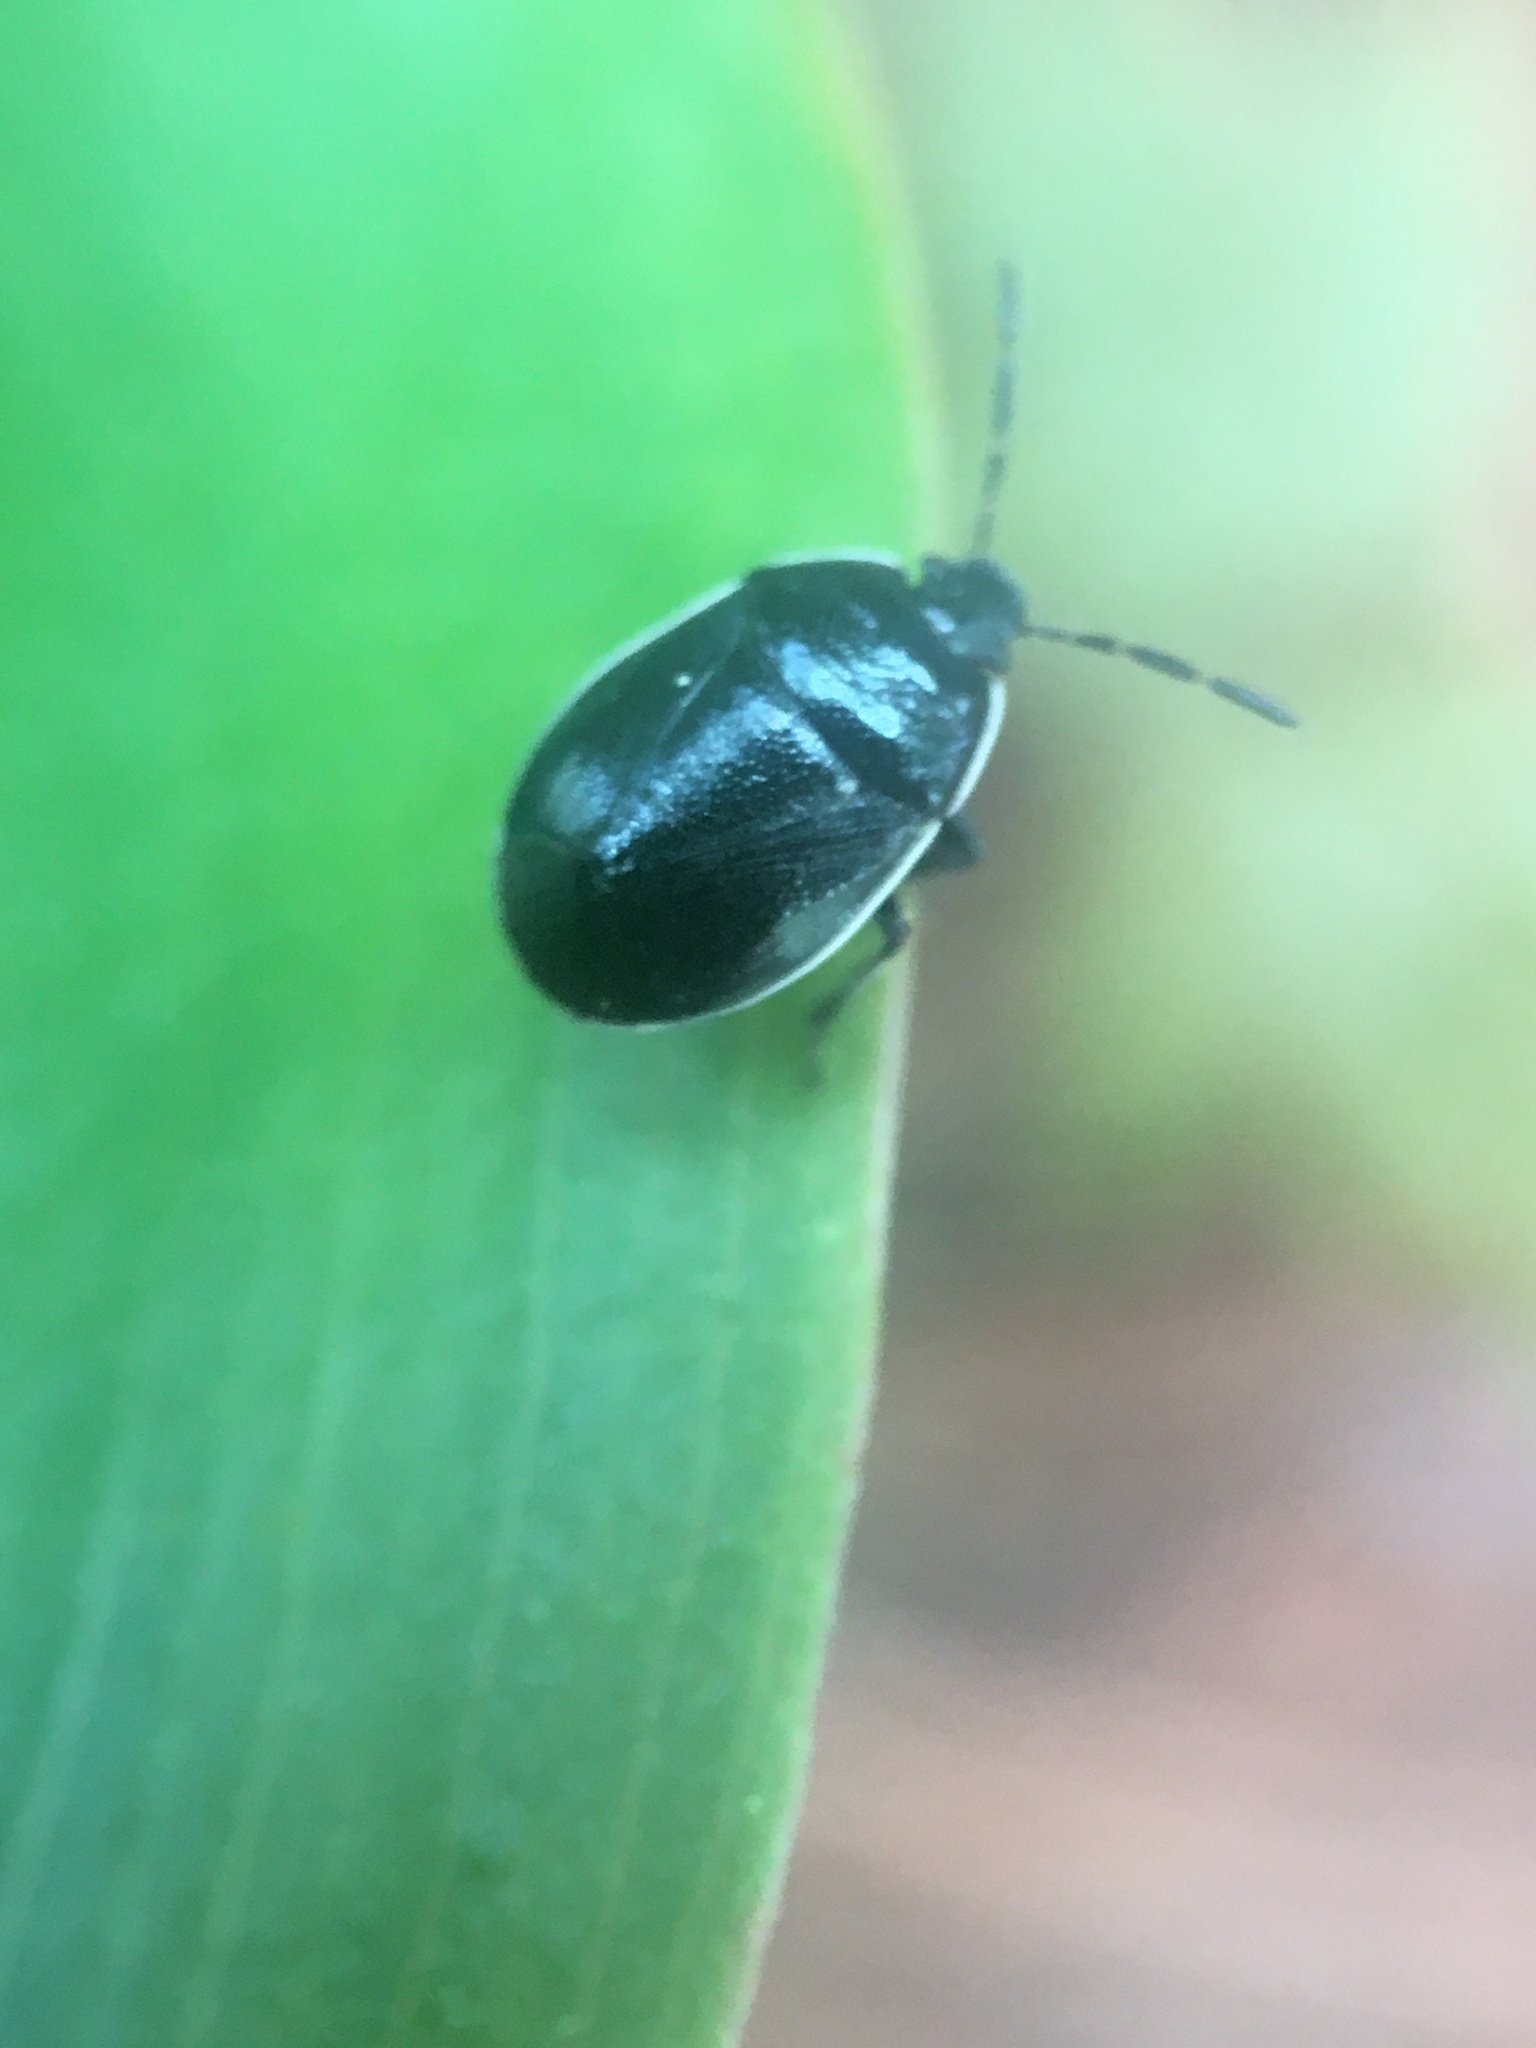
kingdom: Animalia
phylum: Arthropoda
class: Insecta
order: Hemiptera
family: Cydnidae
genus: Sehirus
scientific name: Sehirus cinctus
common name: White-margined burrower bug
